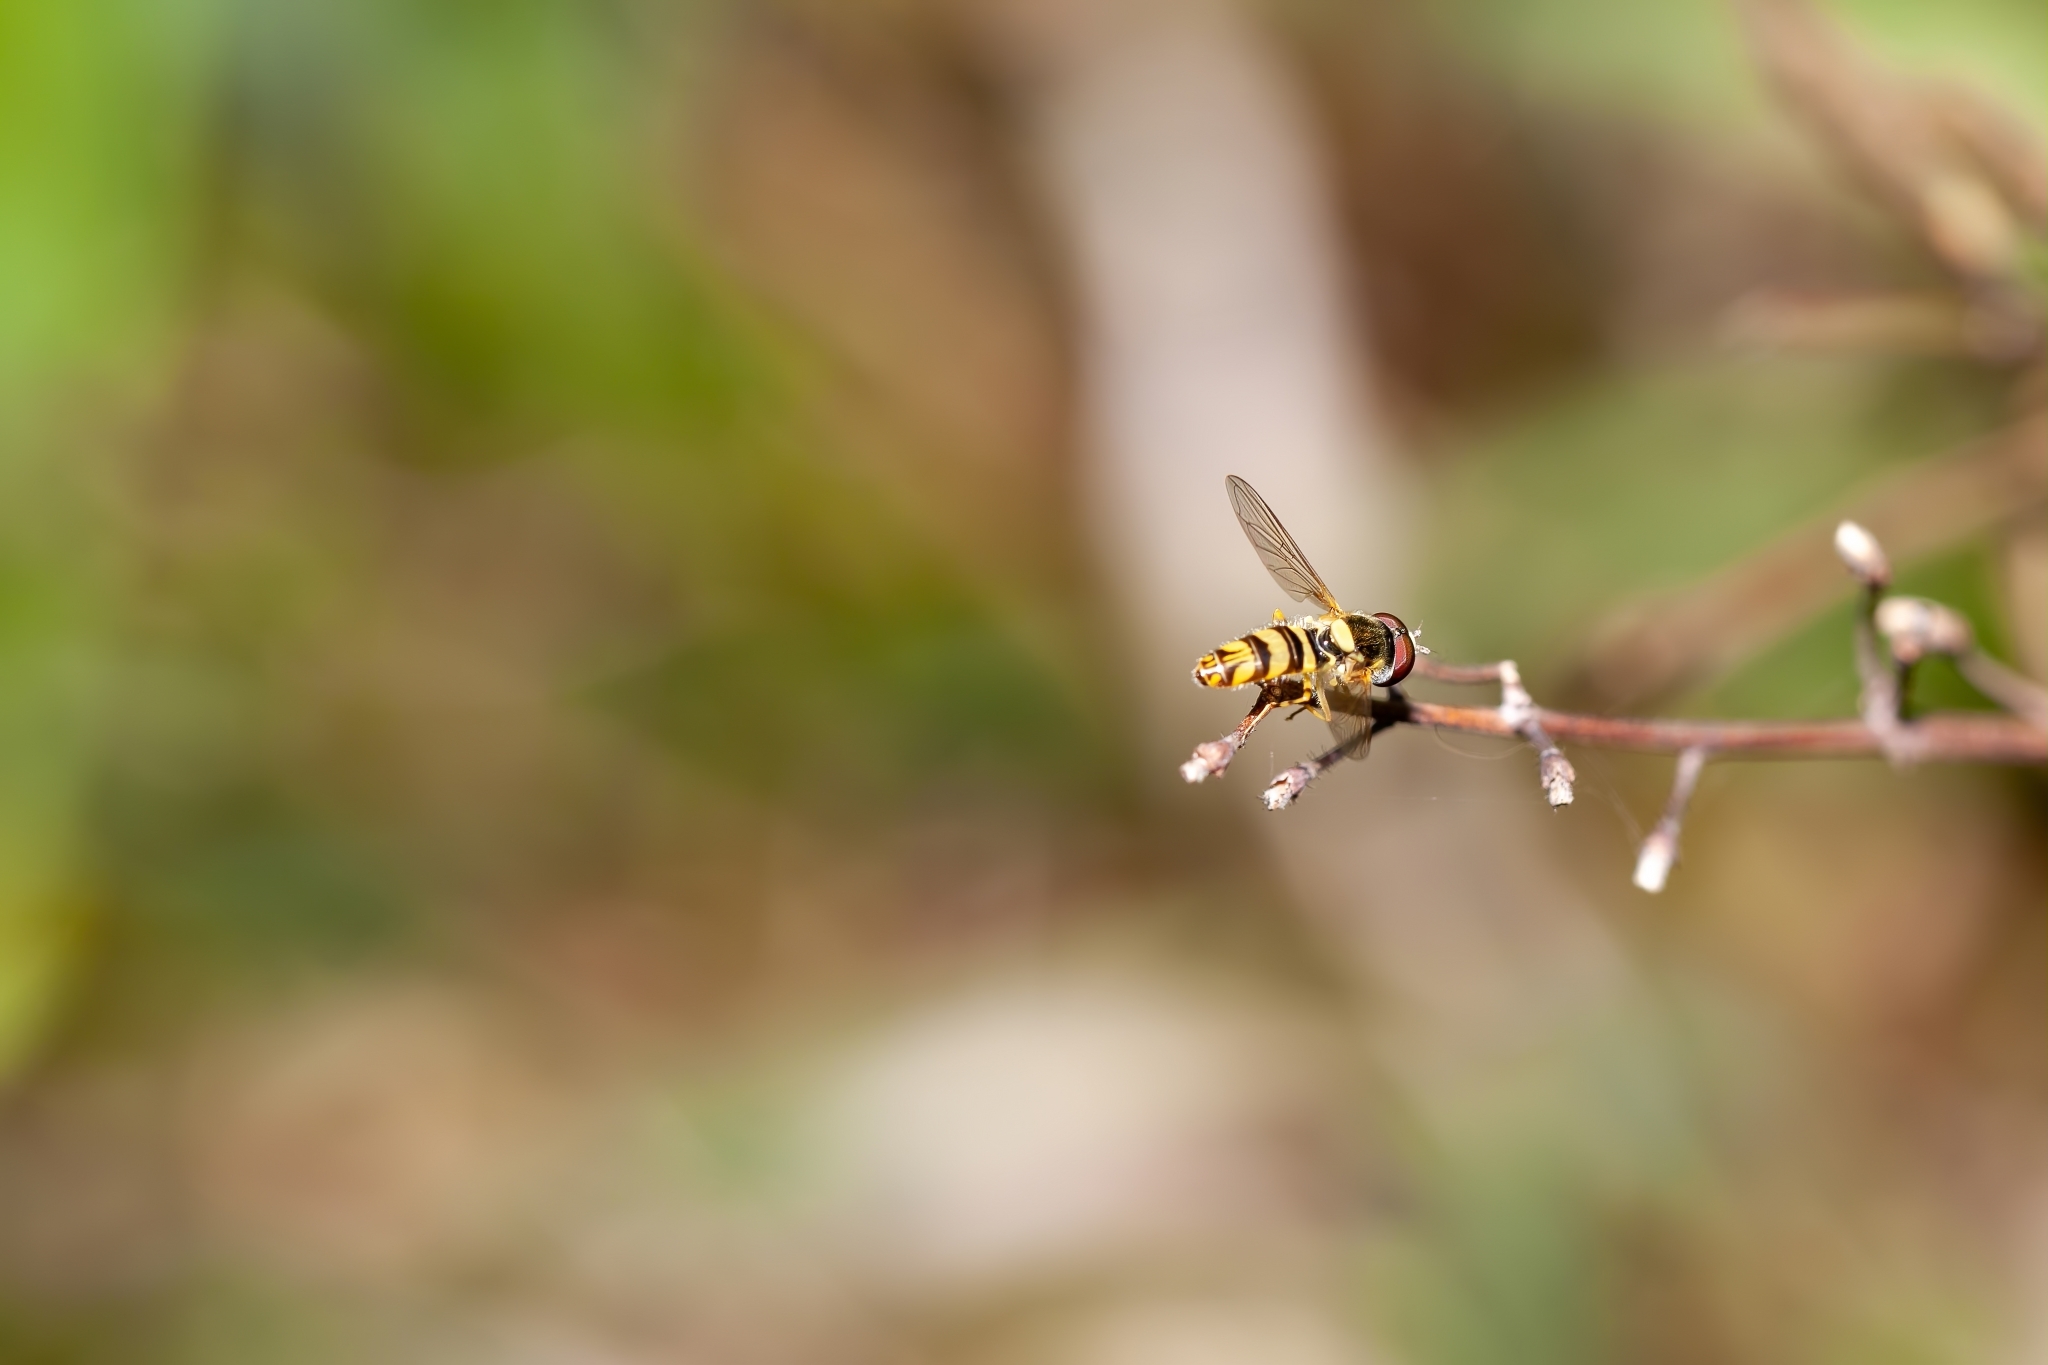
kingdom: Animalia
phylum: Arthropoda
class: Insecta
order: Diptera
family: Syrphidae
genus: Allograpta
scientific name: Allograpta exotica
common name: Syrphid fly
